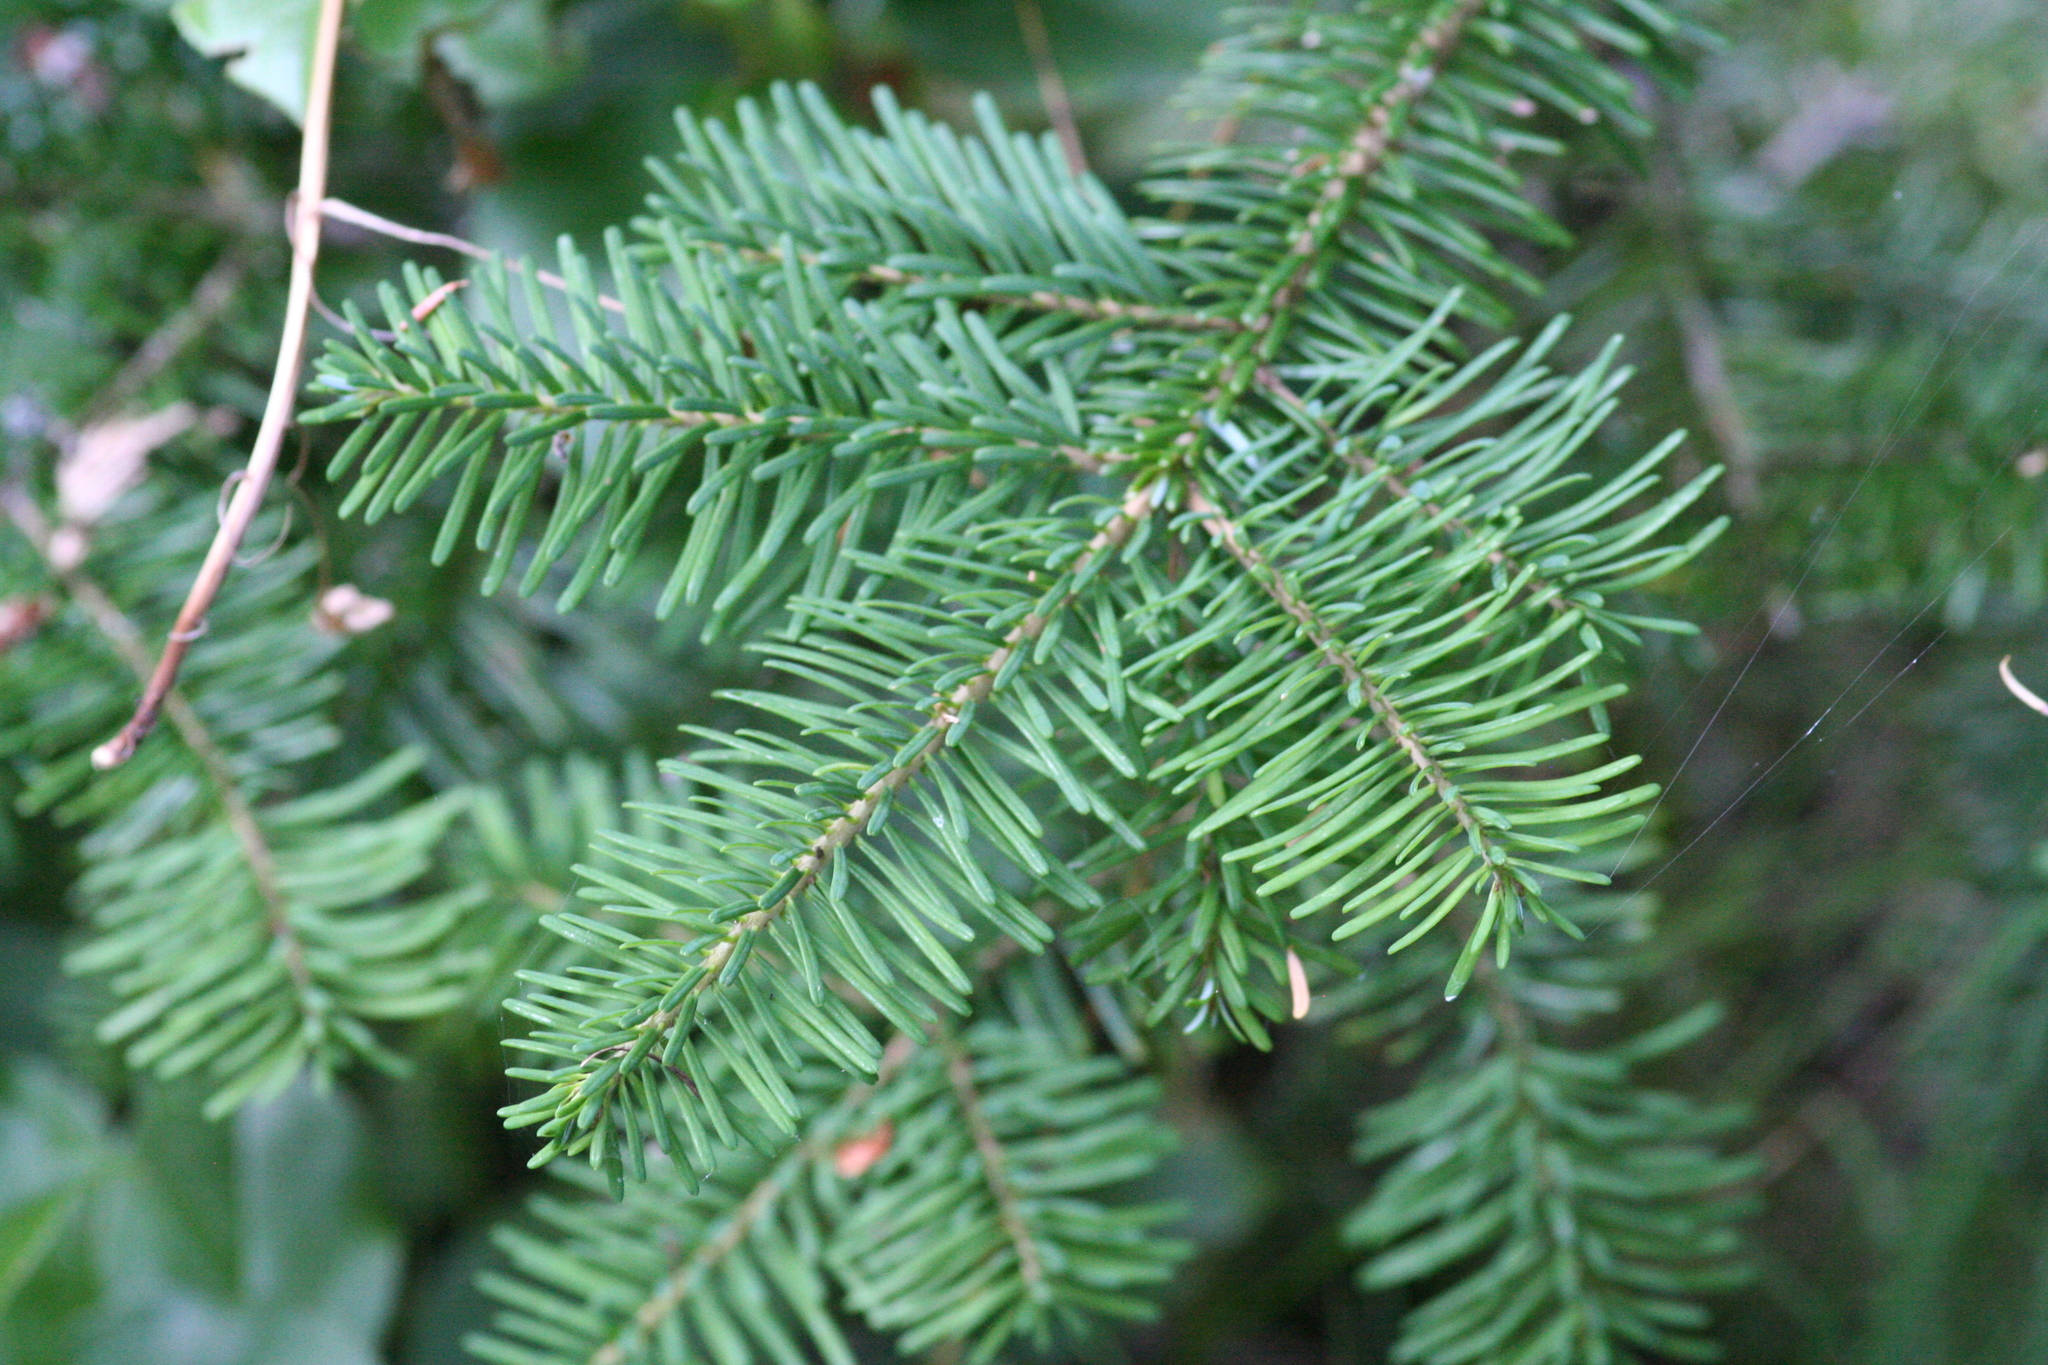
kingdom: Plantae
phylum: Tracheophyta
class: Pinopsida
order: Pinales
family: Pinaceae
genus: Pseudotsuga
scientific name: Pseudotsuga menziesii
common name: Douglas fir
